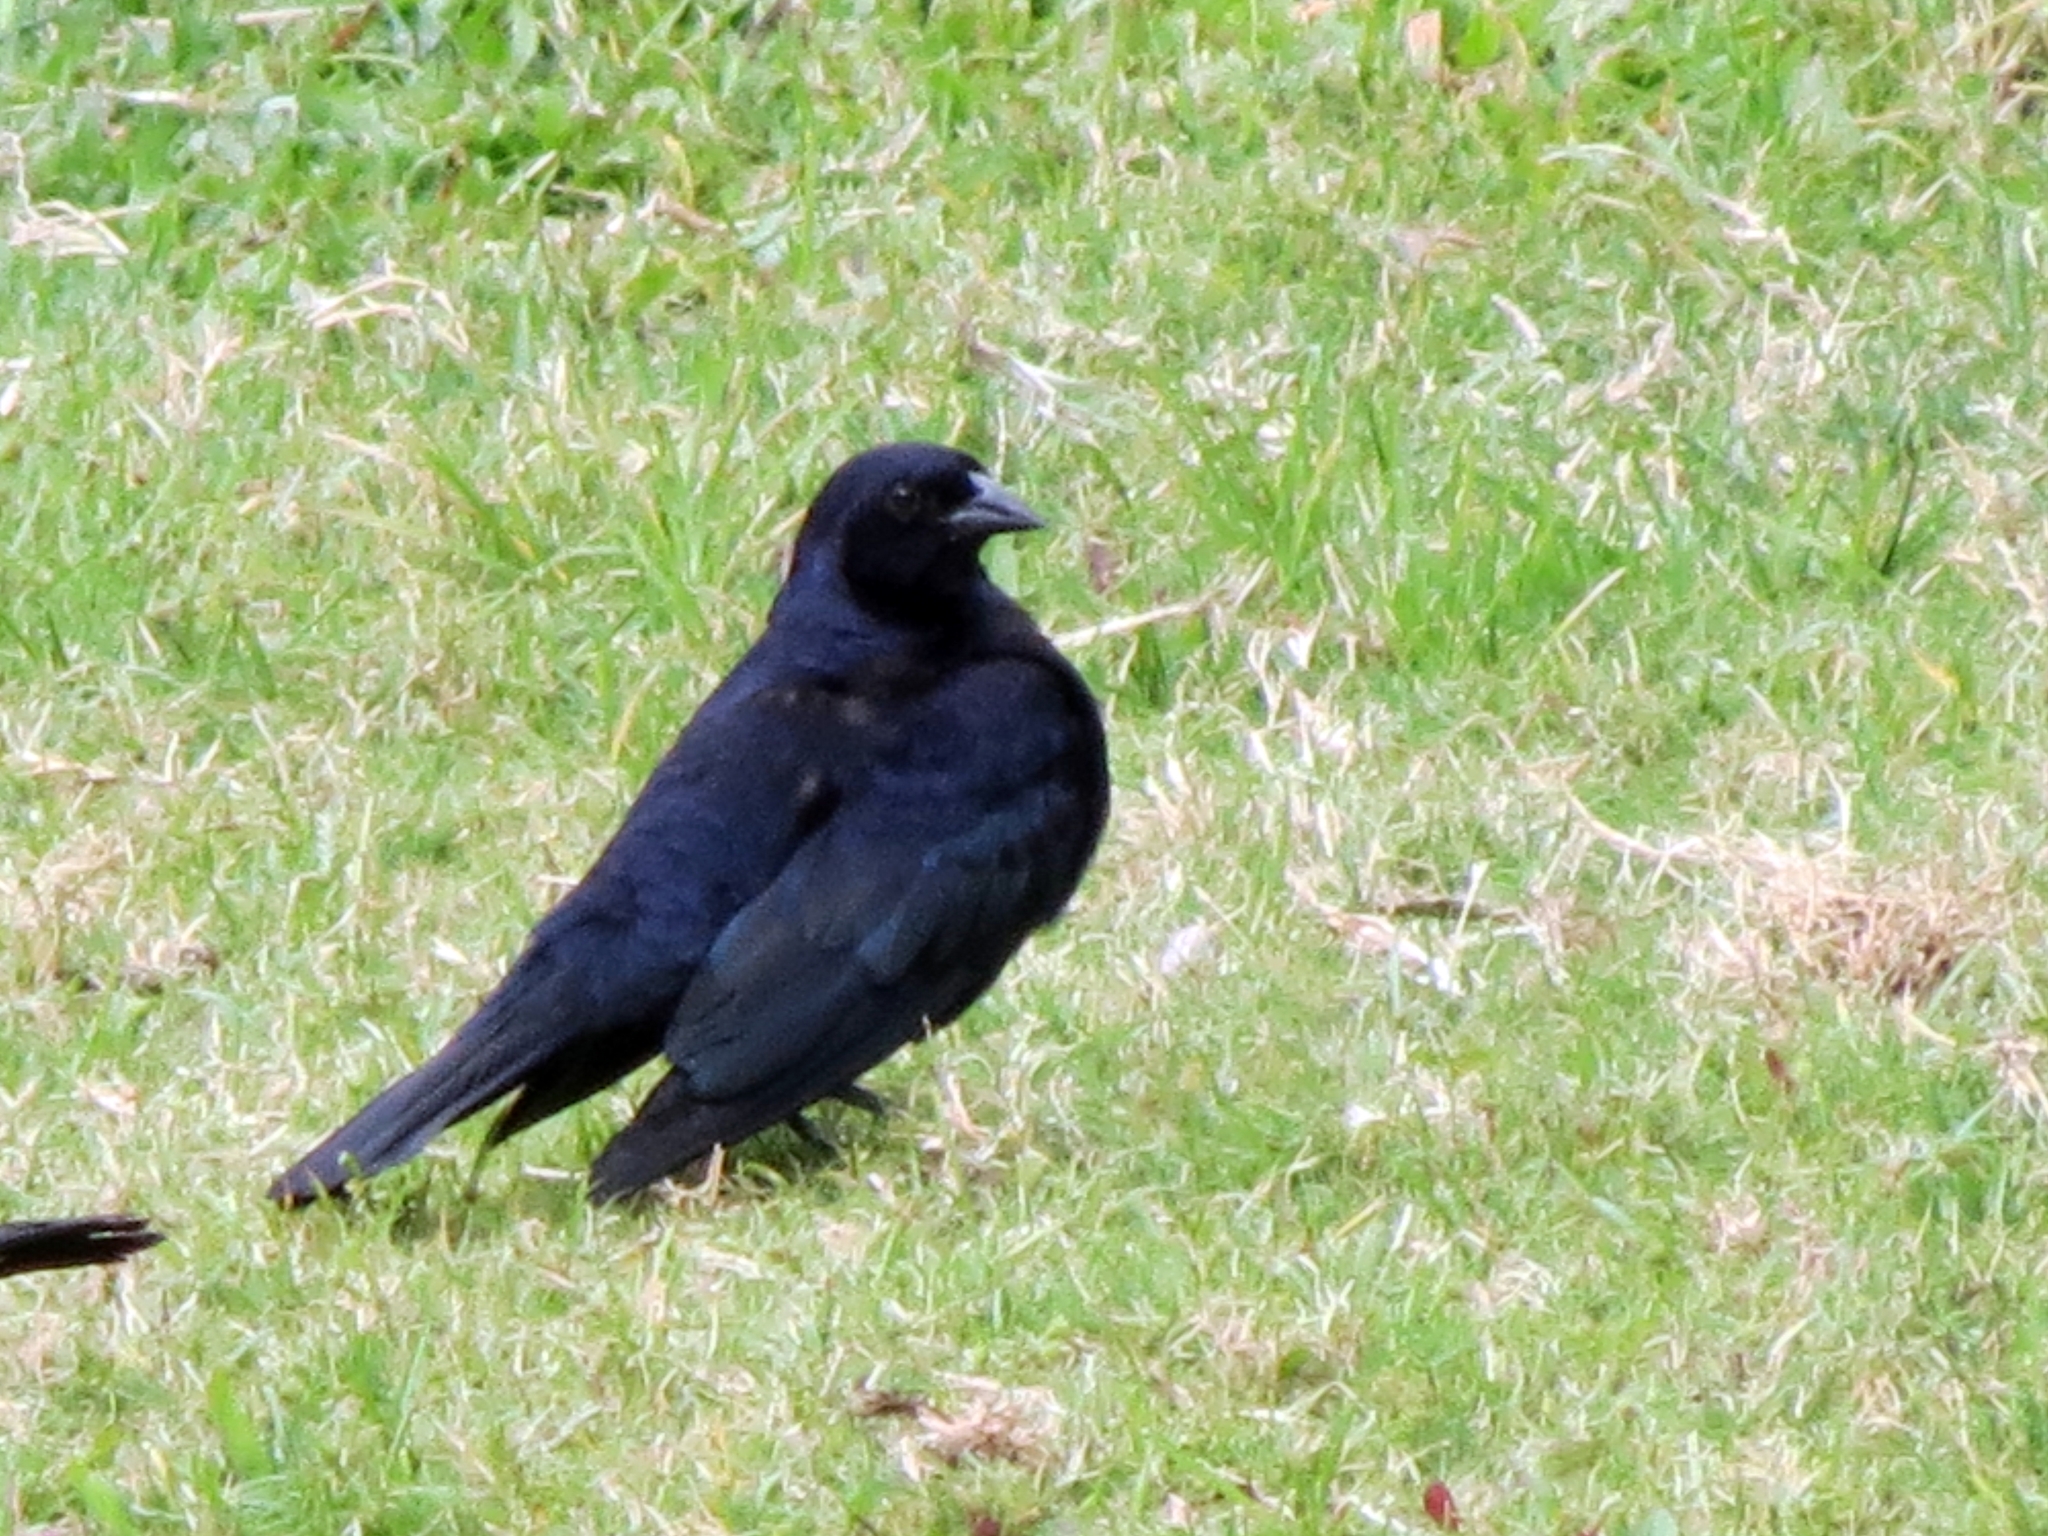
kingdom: Animalia
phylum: Chordata
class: Aves
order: Passeriformes
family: Icteridae
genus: Molothrus
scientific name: Molothrus bonariensis
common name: Shiny cowbird
